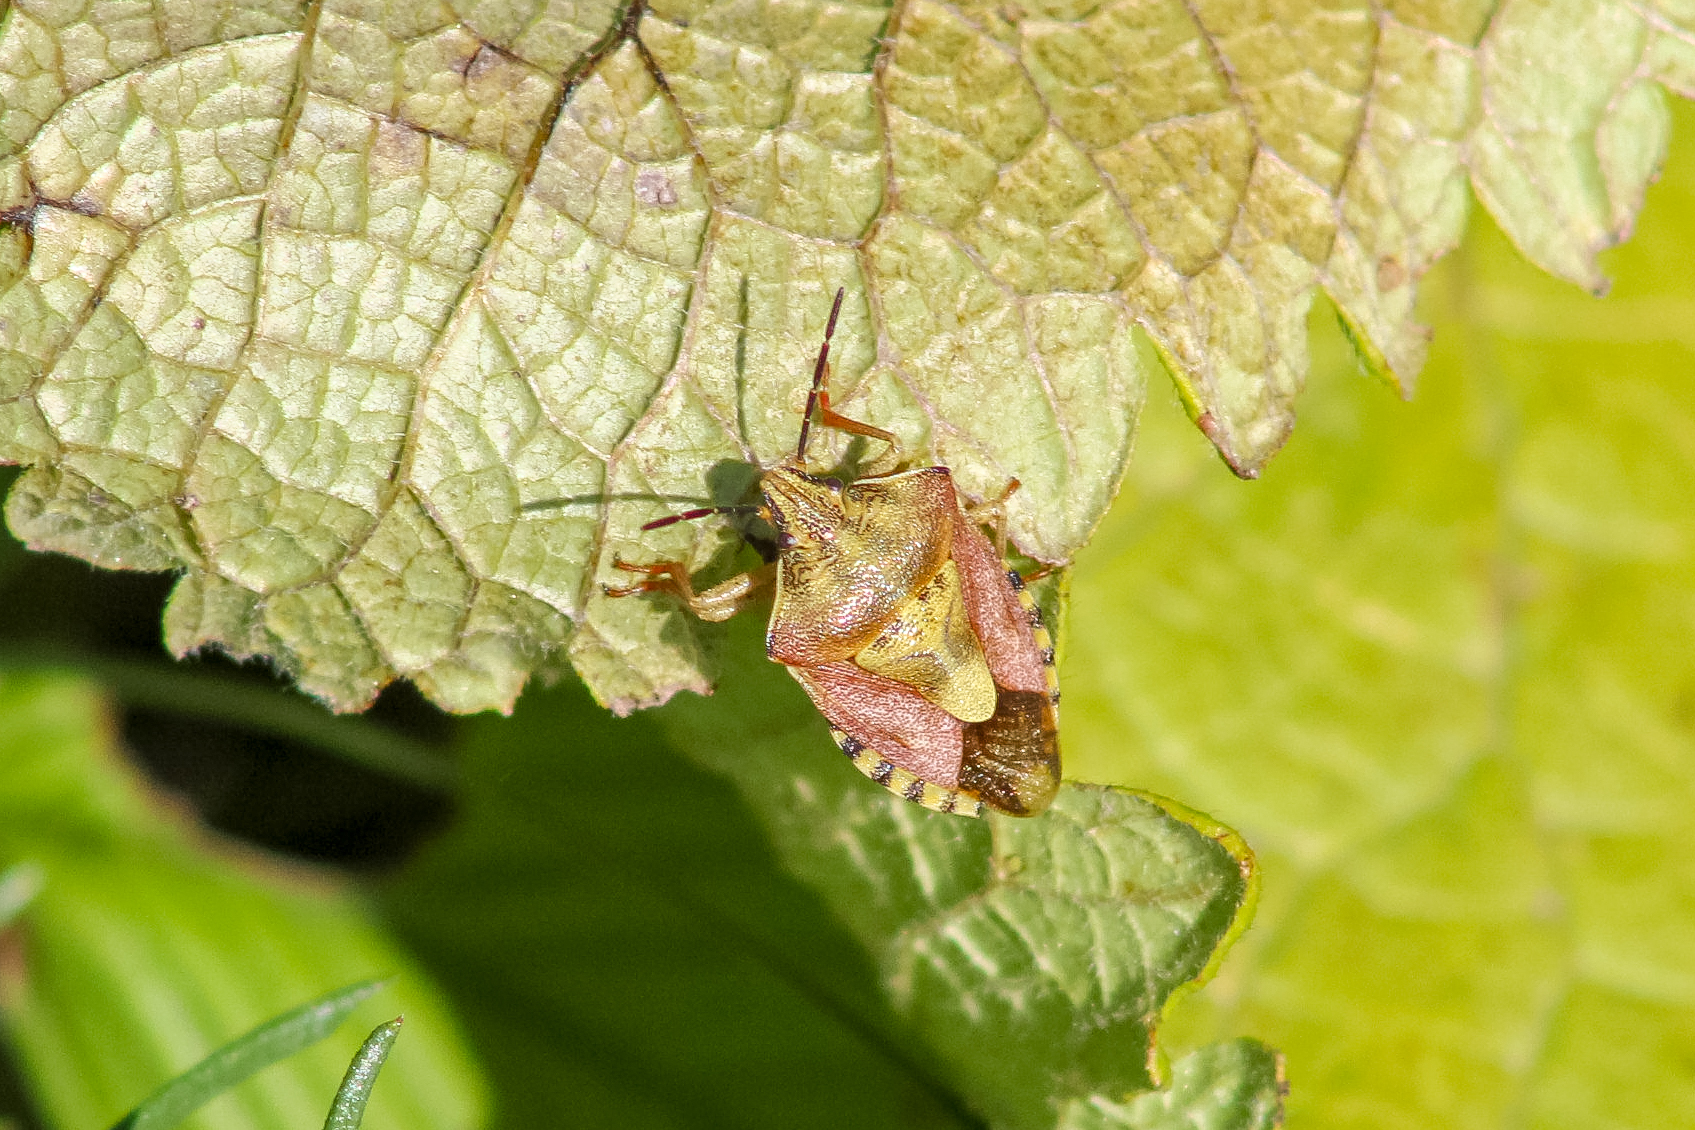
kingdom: Animalia
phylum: Arthropoda
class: Insecta
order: Hemiptera
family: Pentatomidae
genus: Carpocoris
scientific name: Carpocoris purpureipennis
